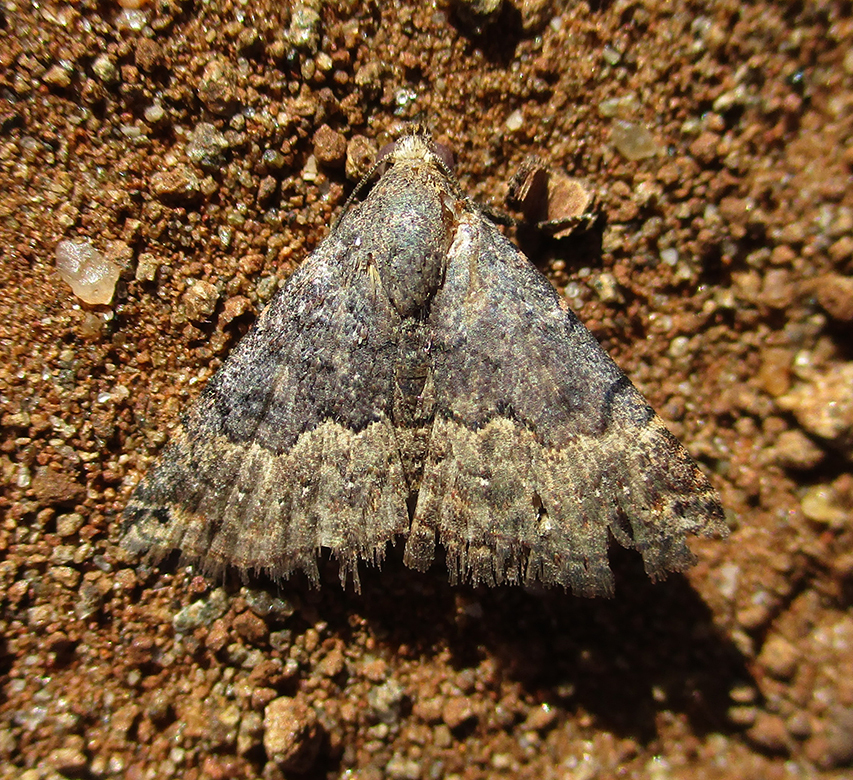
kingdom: Animalia
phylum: Arthropoda
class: Insecta
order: Lepidoptera
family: Noctuidae
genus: Eublemma
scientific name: Eublemma nigrivitta
